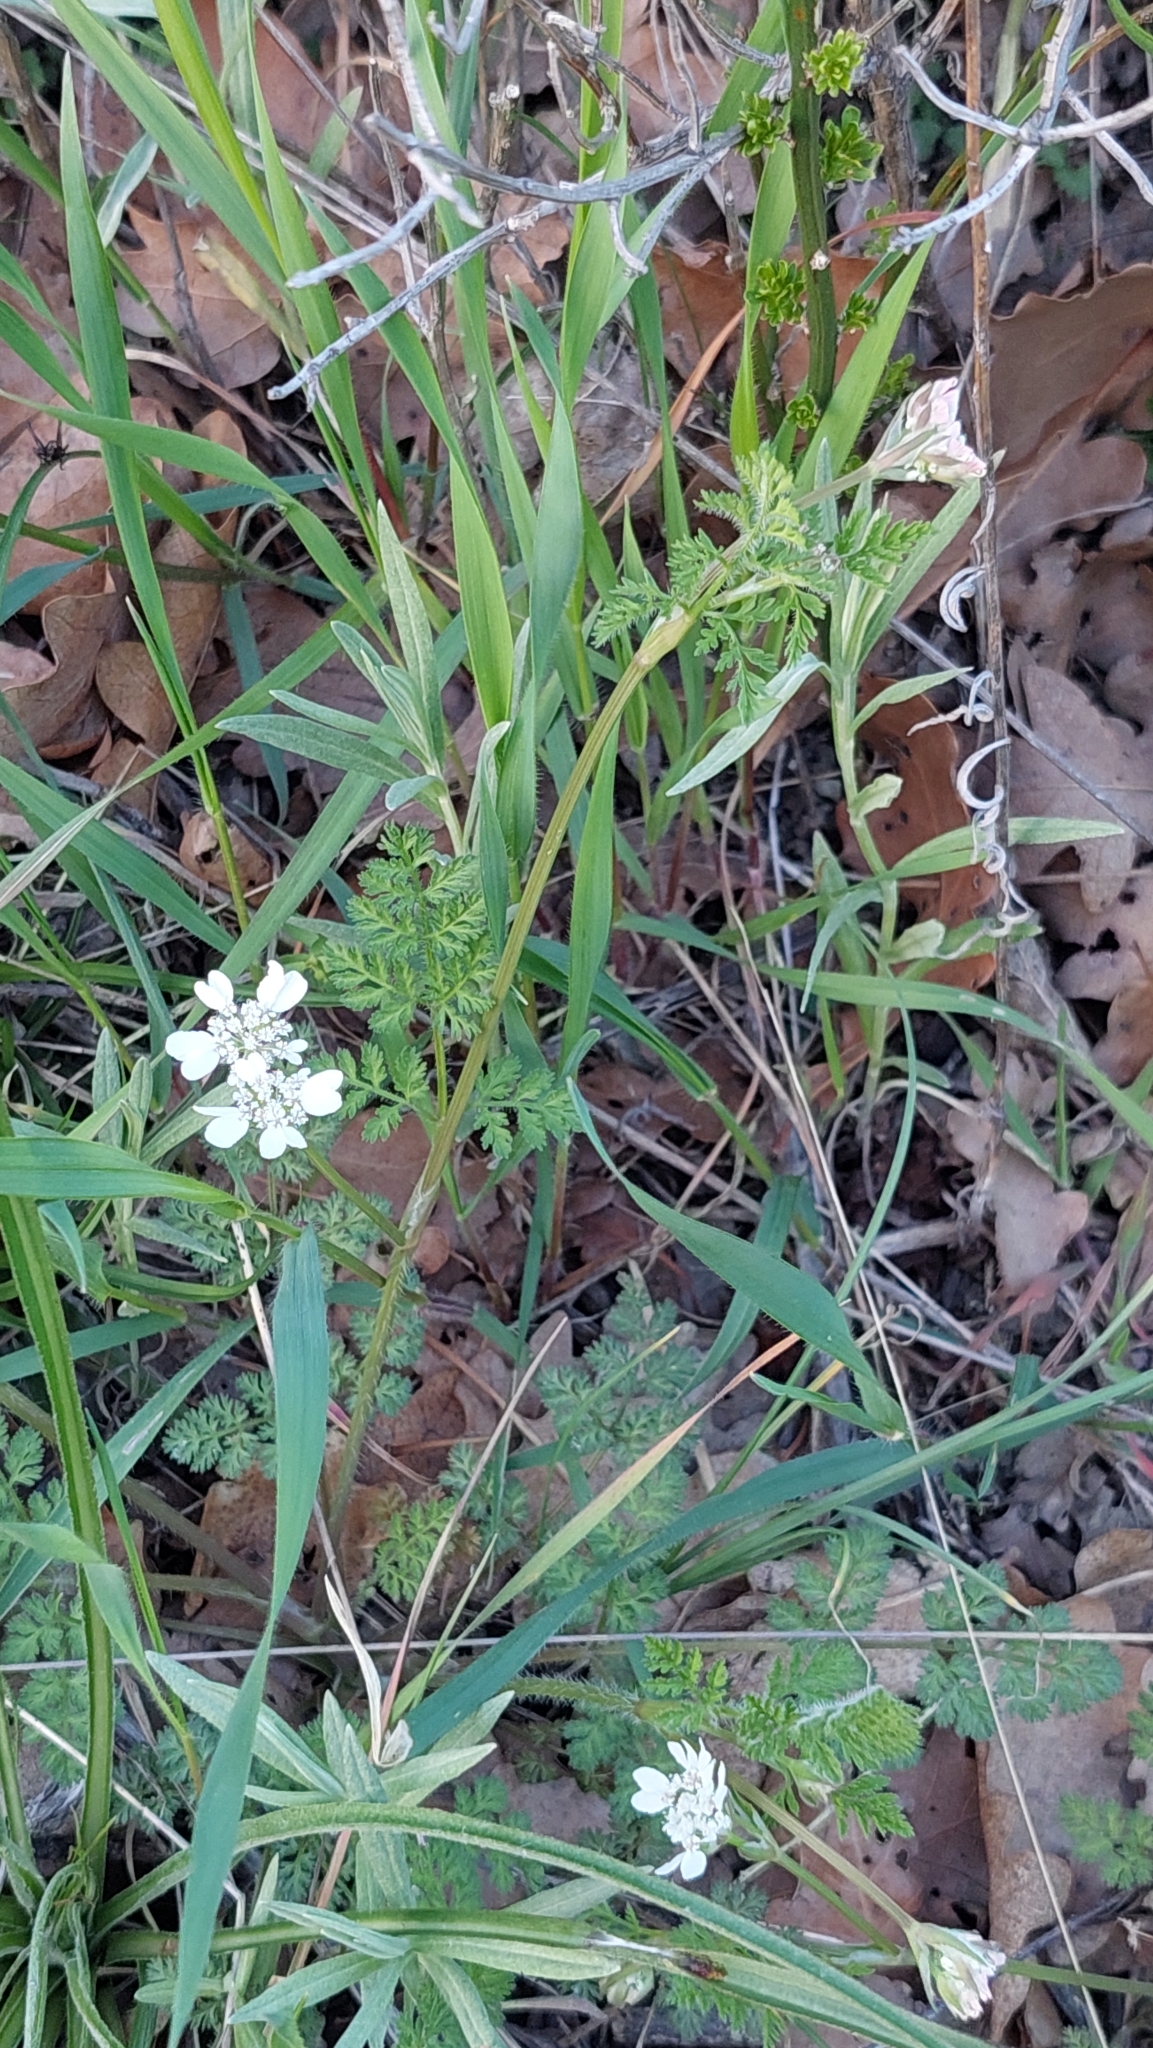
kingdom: Plantae
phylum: Tracheophyta
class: Magnoliopsida
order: Apiales
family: Apiaceae
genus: Orlaya
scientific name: Orlaya daucoides
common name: Flat-fruit orlaya
